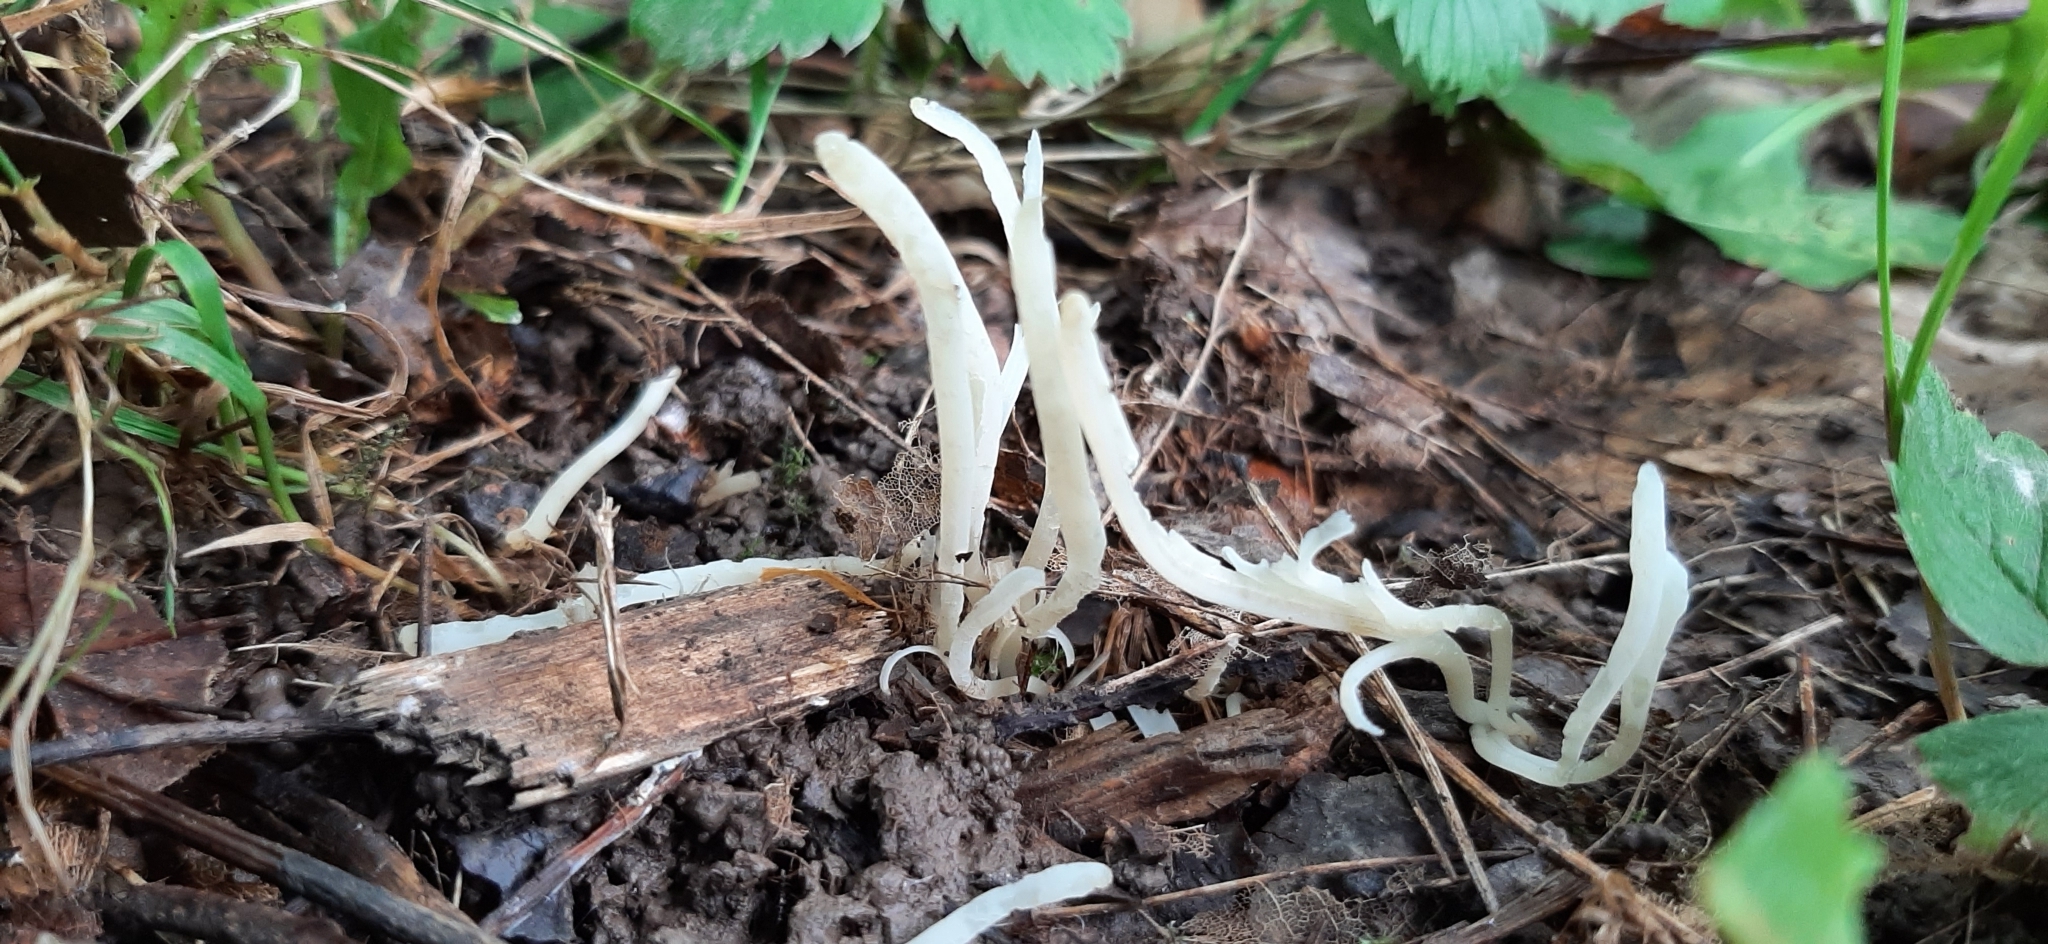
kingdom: Fungi
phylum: Basidiomycota
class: Agaricomycetes
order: Agaricales
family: Clavariaceae
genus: Clavaria
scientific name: Clavaria fragilis
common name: White spindles
